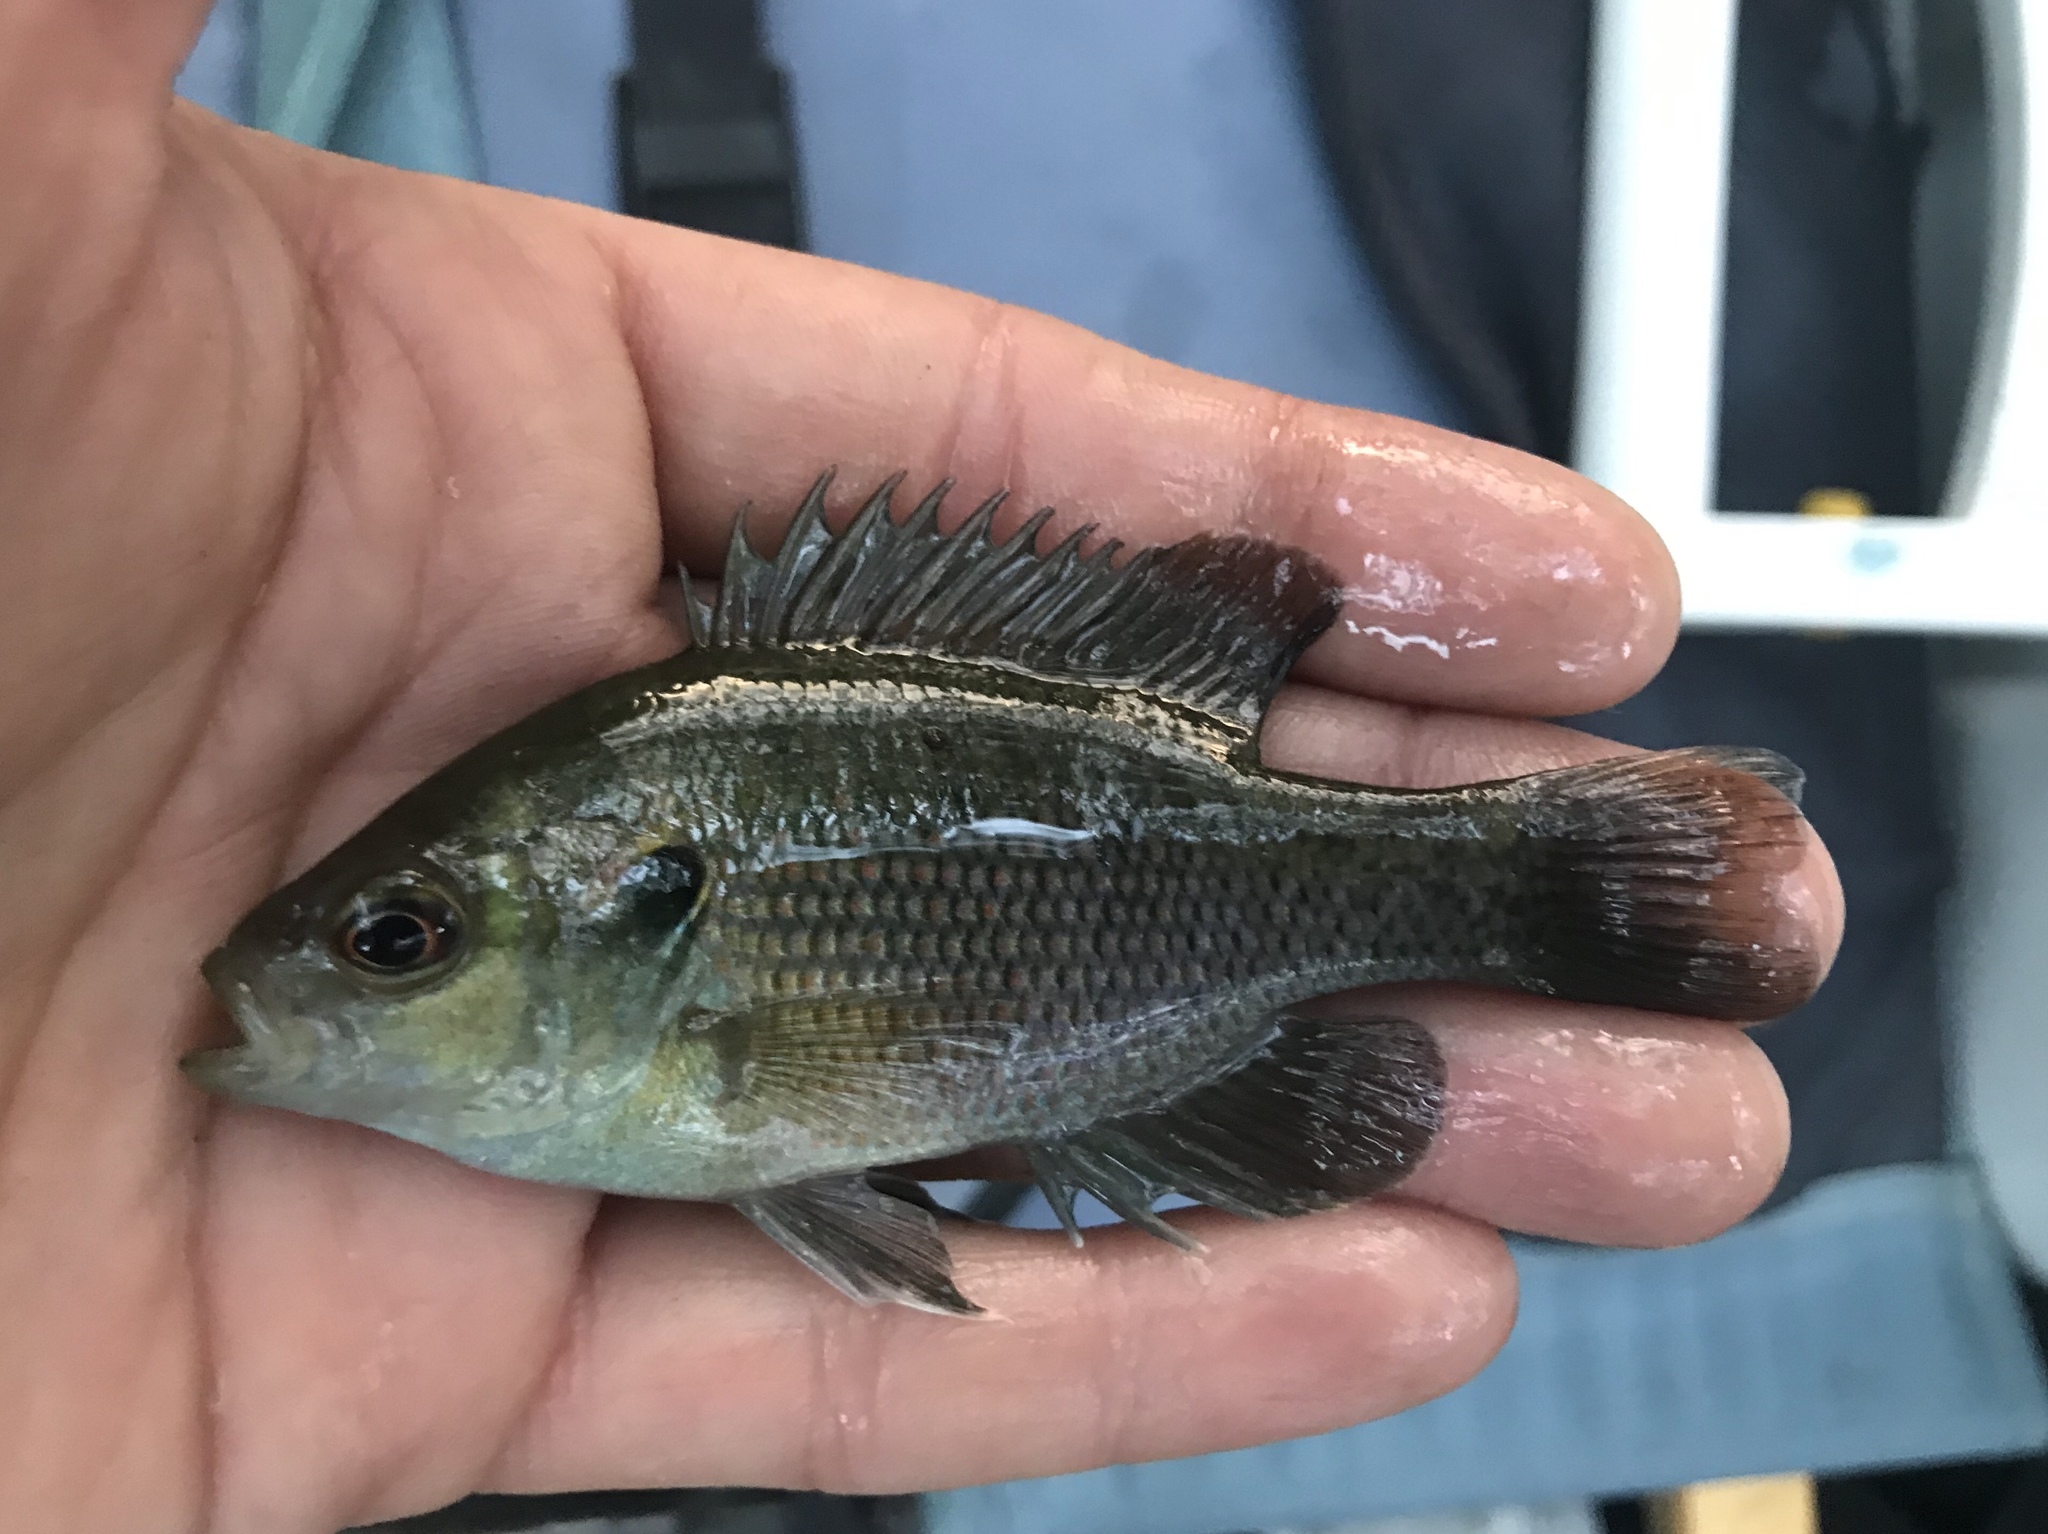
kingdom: Animalia
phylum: Chordata
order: Perciformes
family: Centrarchidae
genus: Lepomis
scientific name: Lepomis miniatus
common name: Redspotted sunfish
